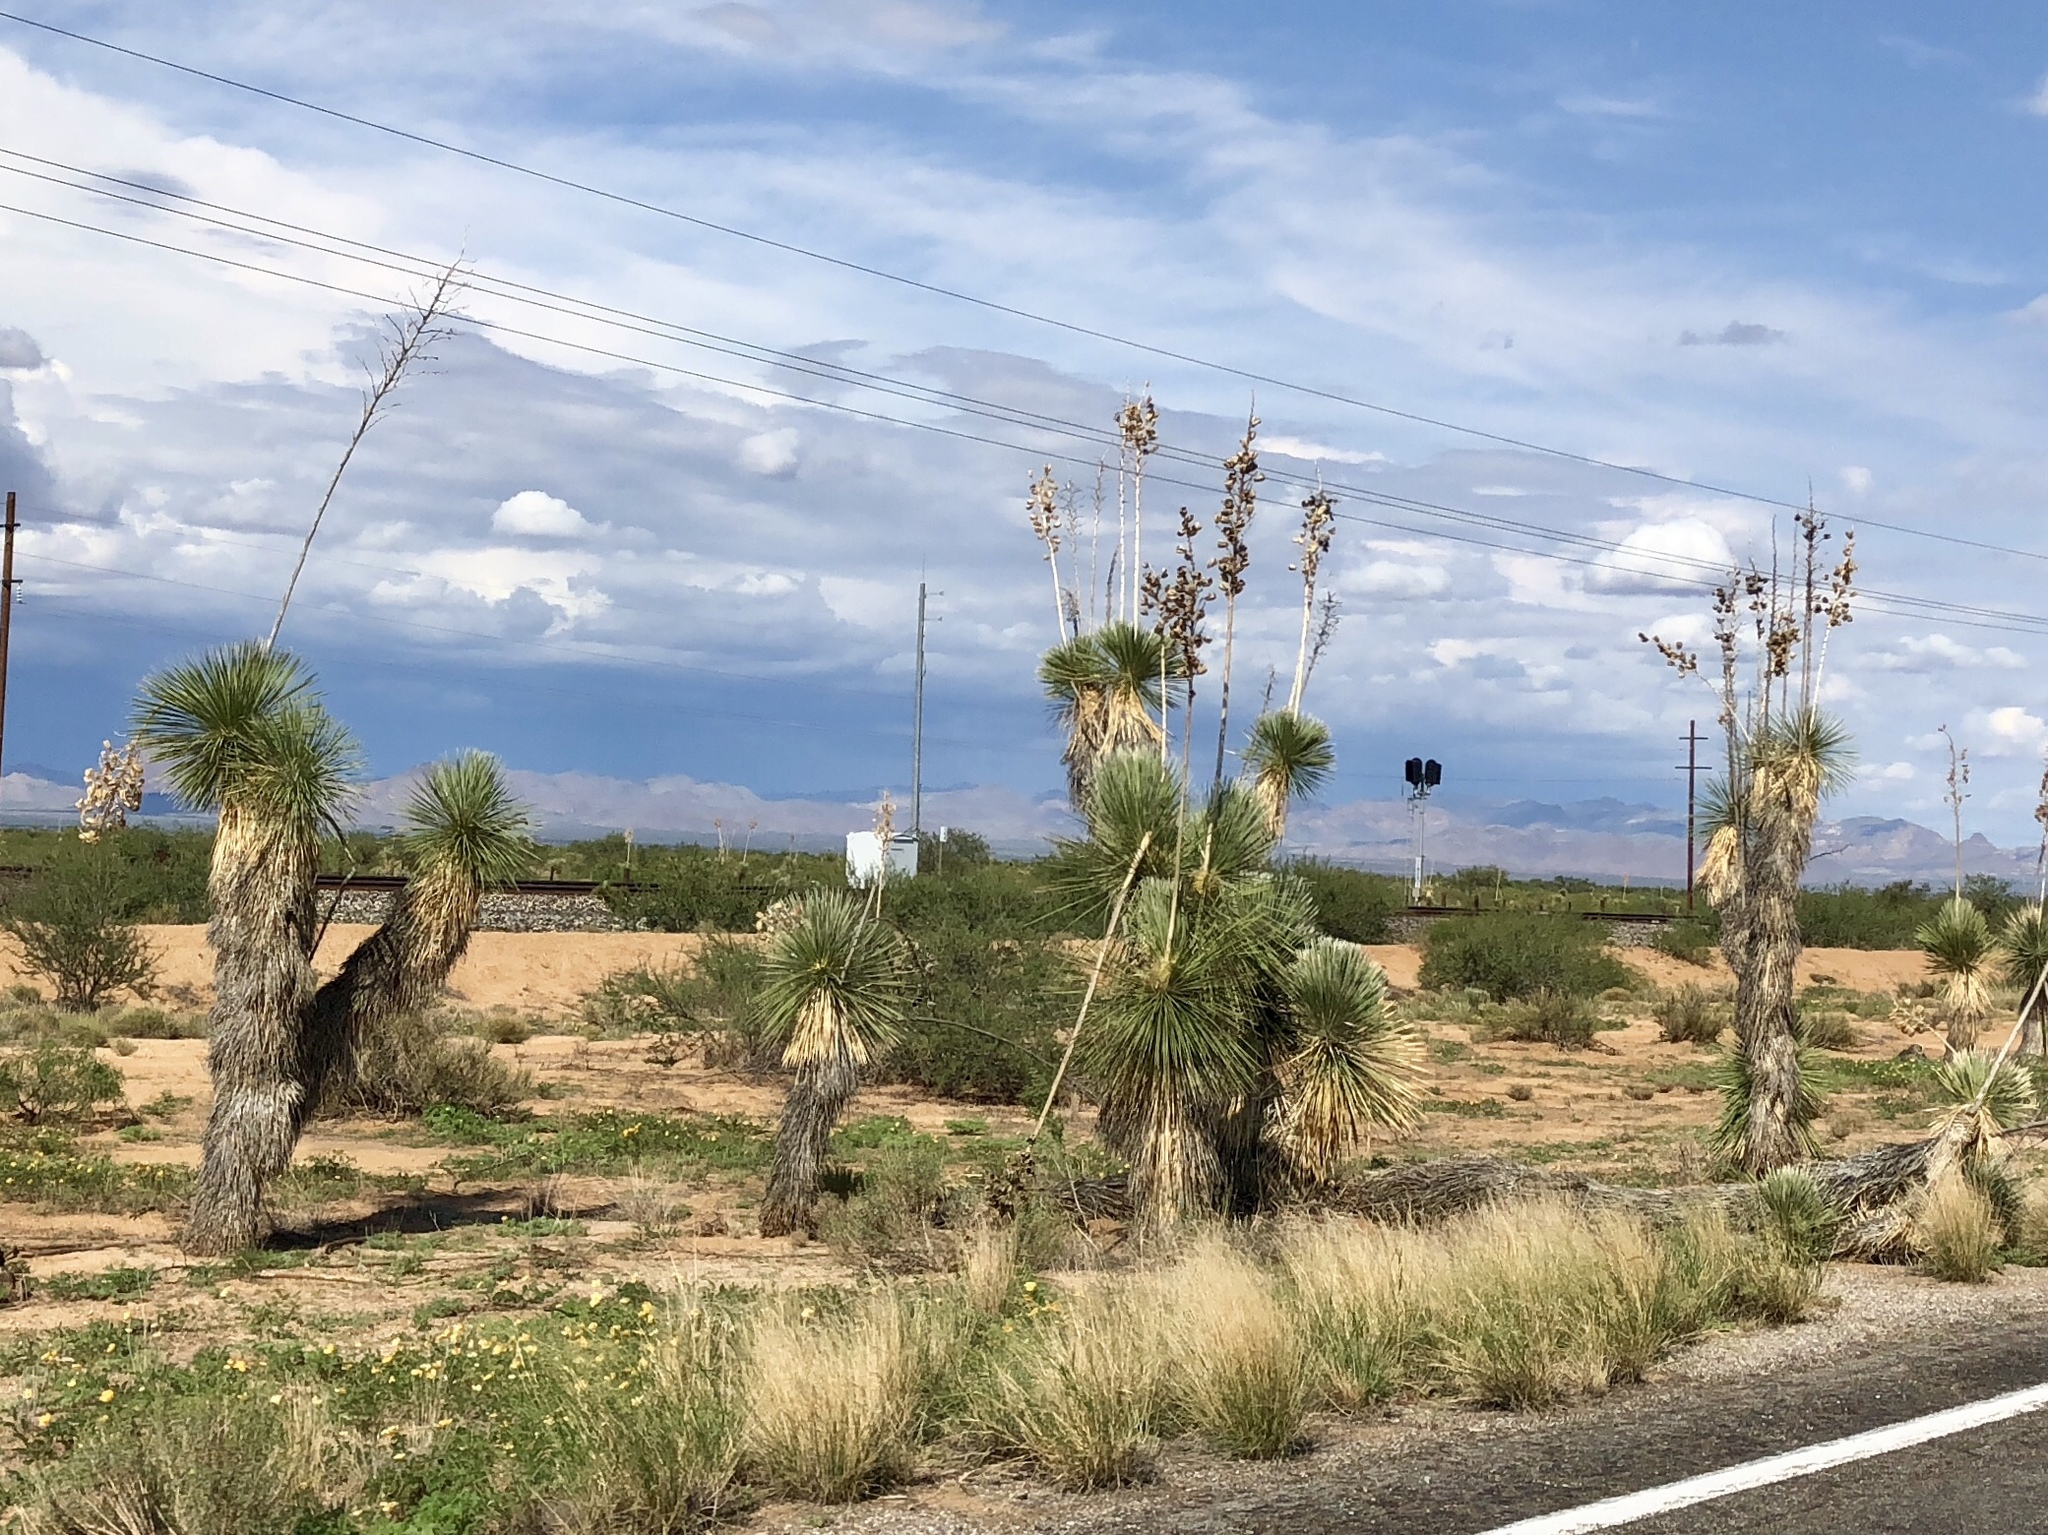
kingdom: Plantae
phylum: Tracheophyta
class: Liliopsida
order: Asparagales
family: Asparagaceae
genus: Yucca
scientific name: Yucca elata
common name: Palmella
